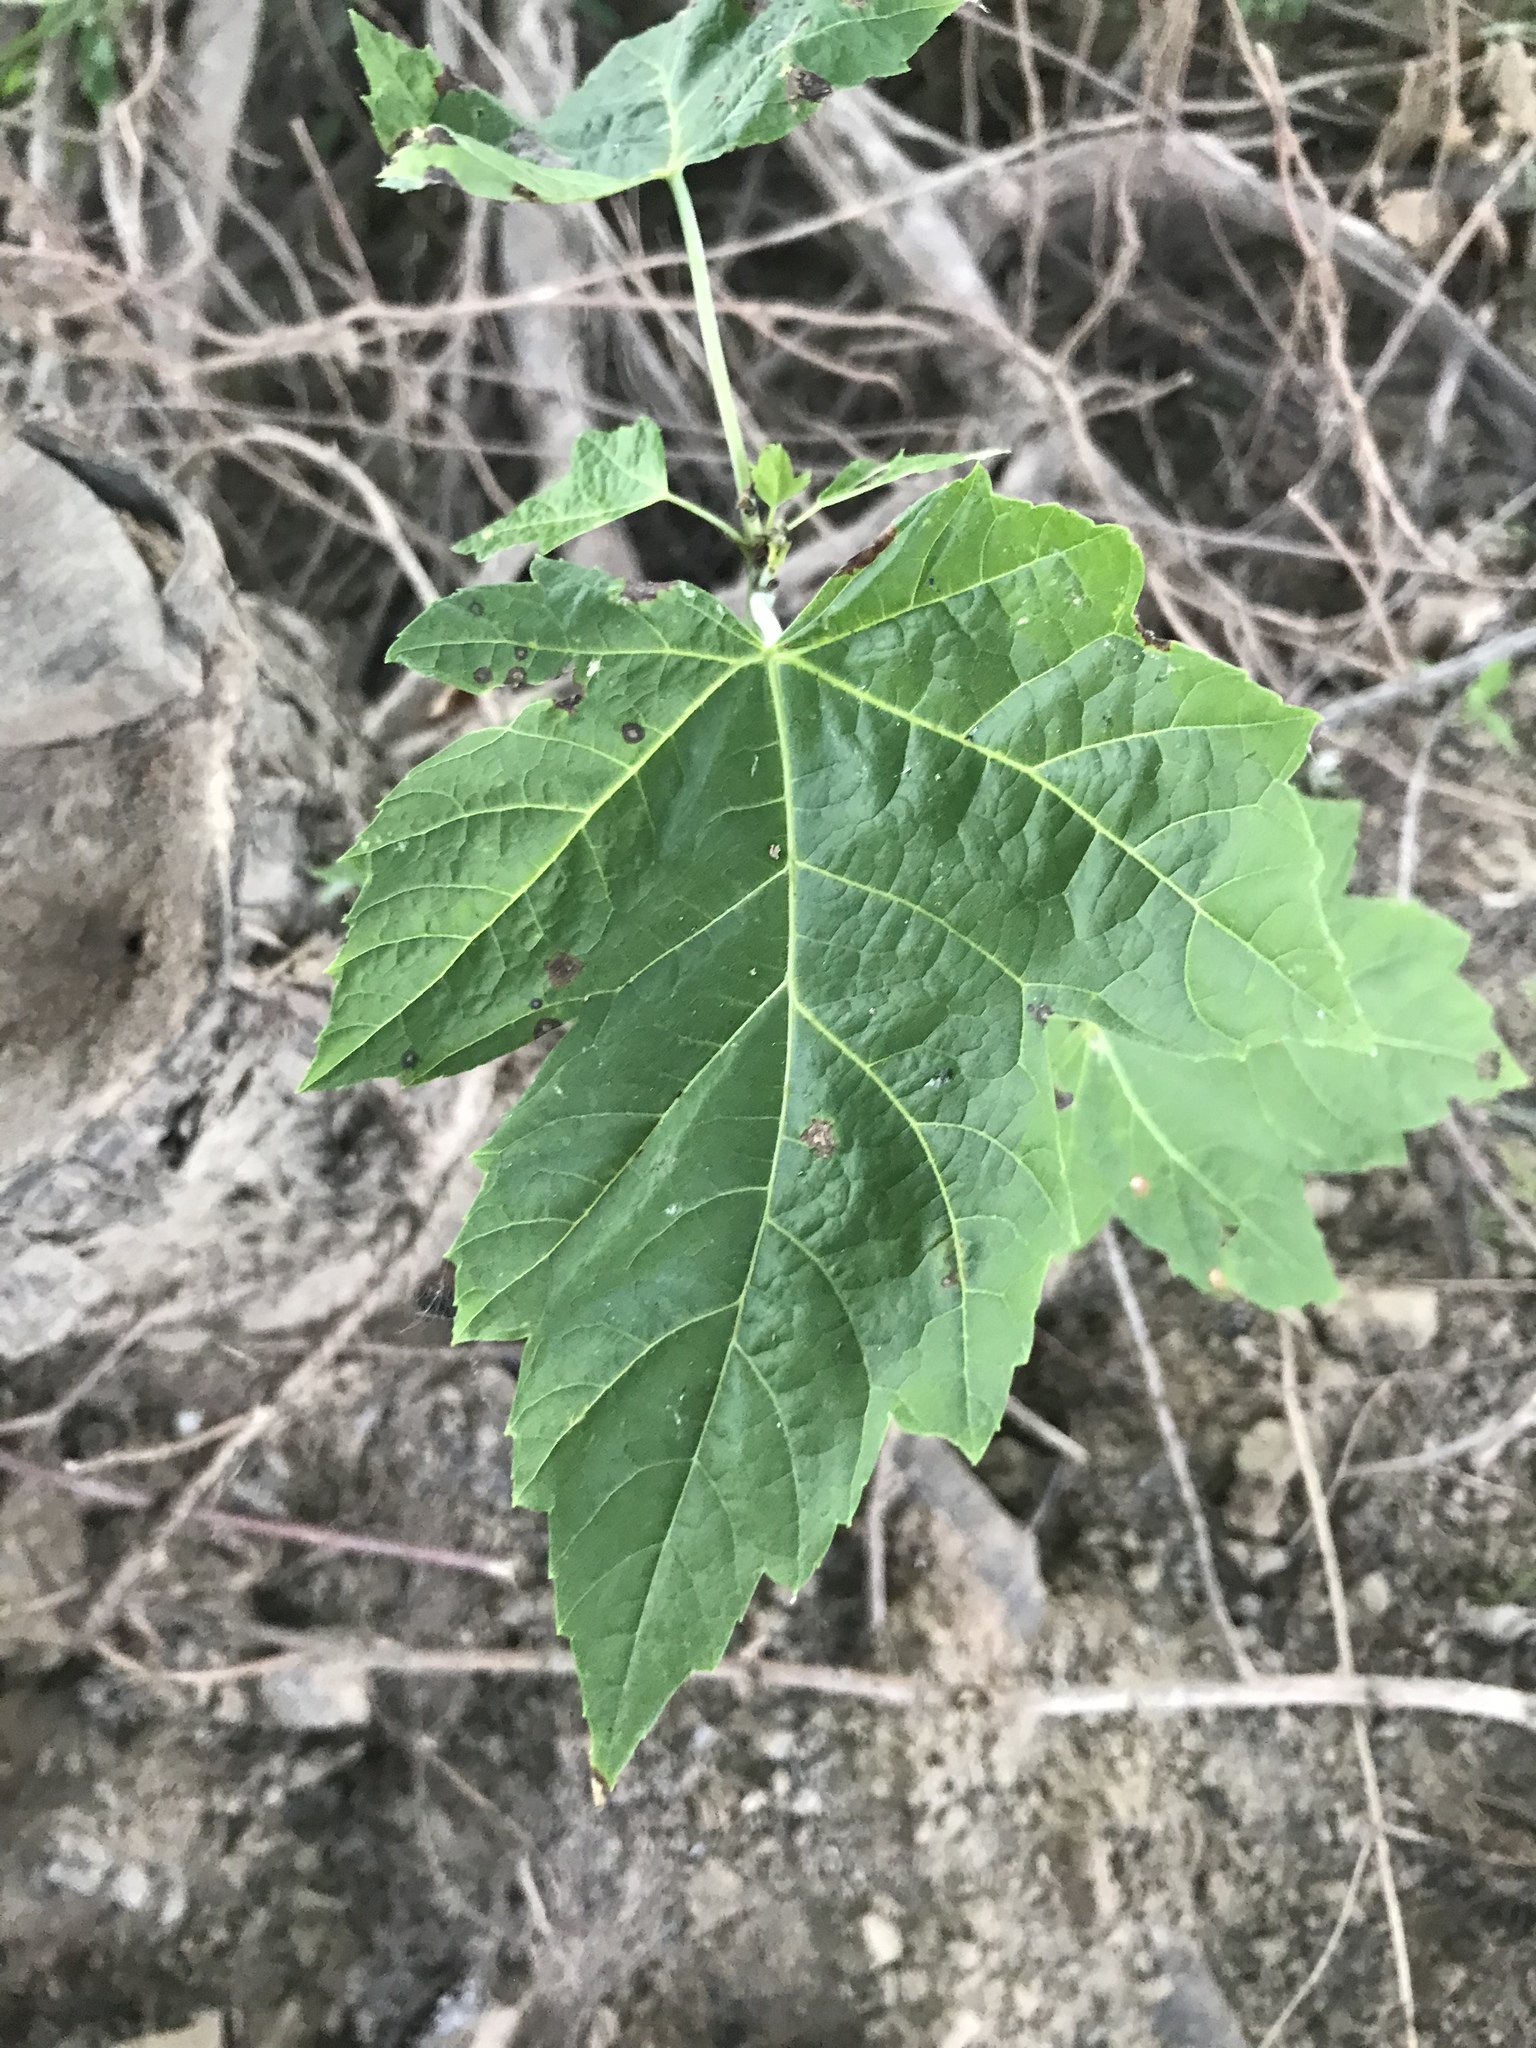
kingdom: Plantae
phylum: Tracheophyta
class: Magnoliopsida
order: Sapindales
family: Sapindaceae
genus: Acer
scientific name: Acer rubrum
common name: Red maple
